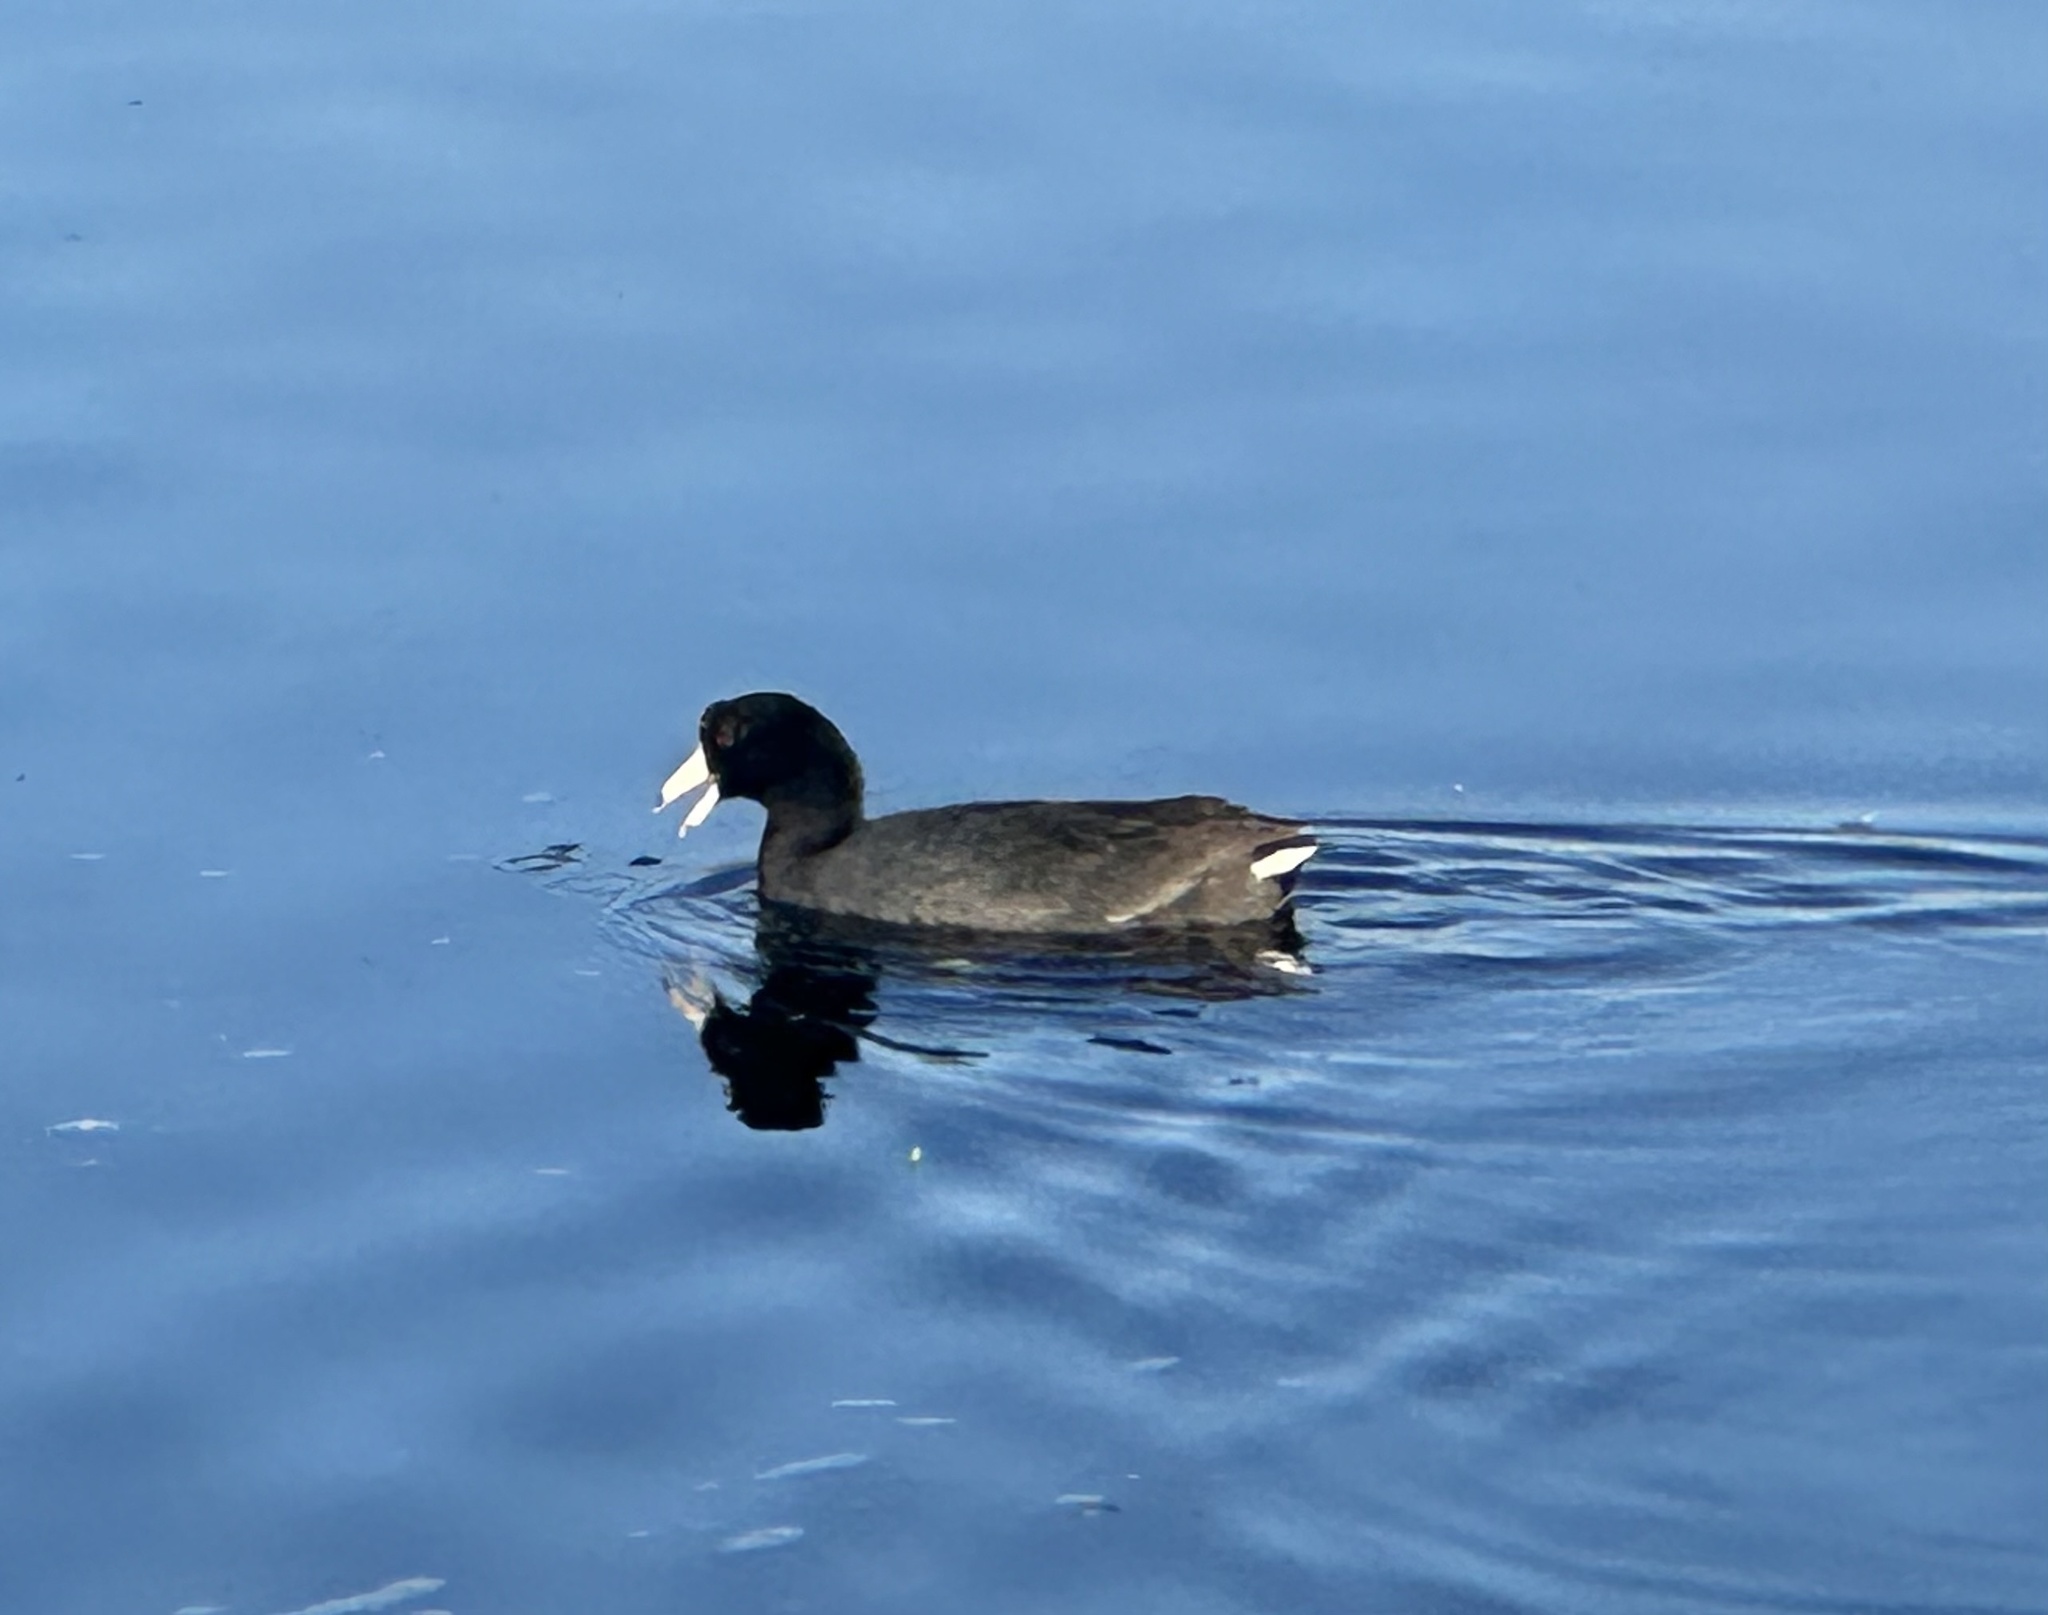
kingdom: Animalia
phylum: Chordata
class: Aves
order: Gruiformes
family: Rallidae
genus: Fulica
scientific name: Fulica americana
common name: American coot
